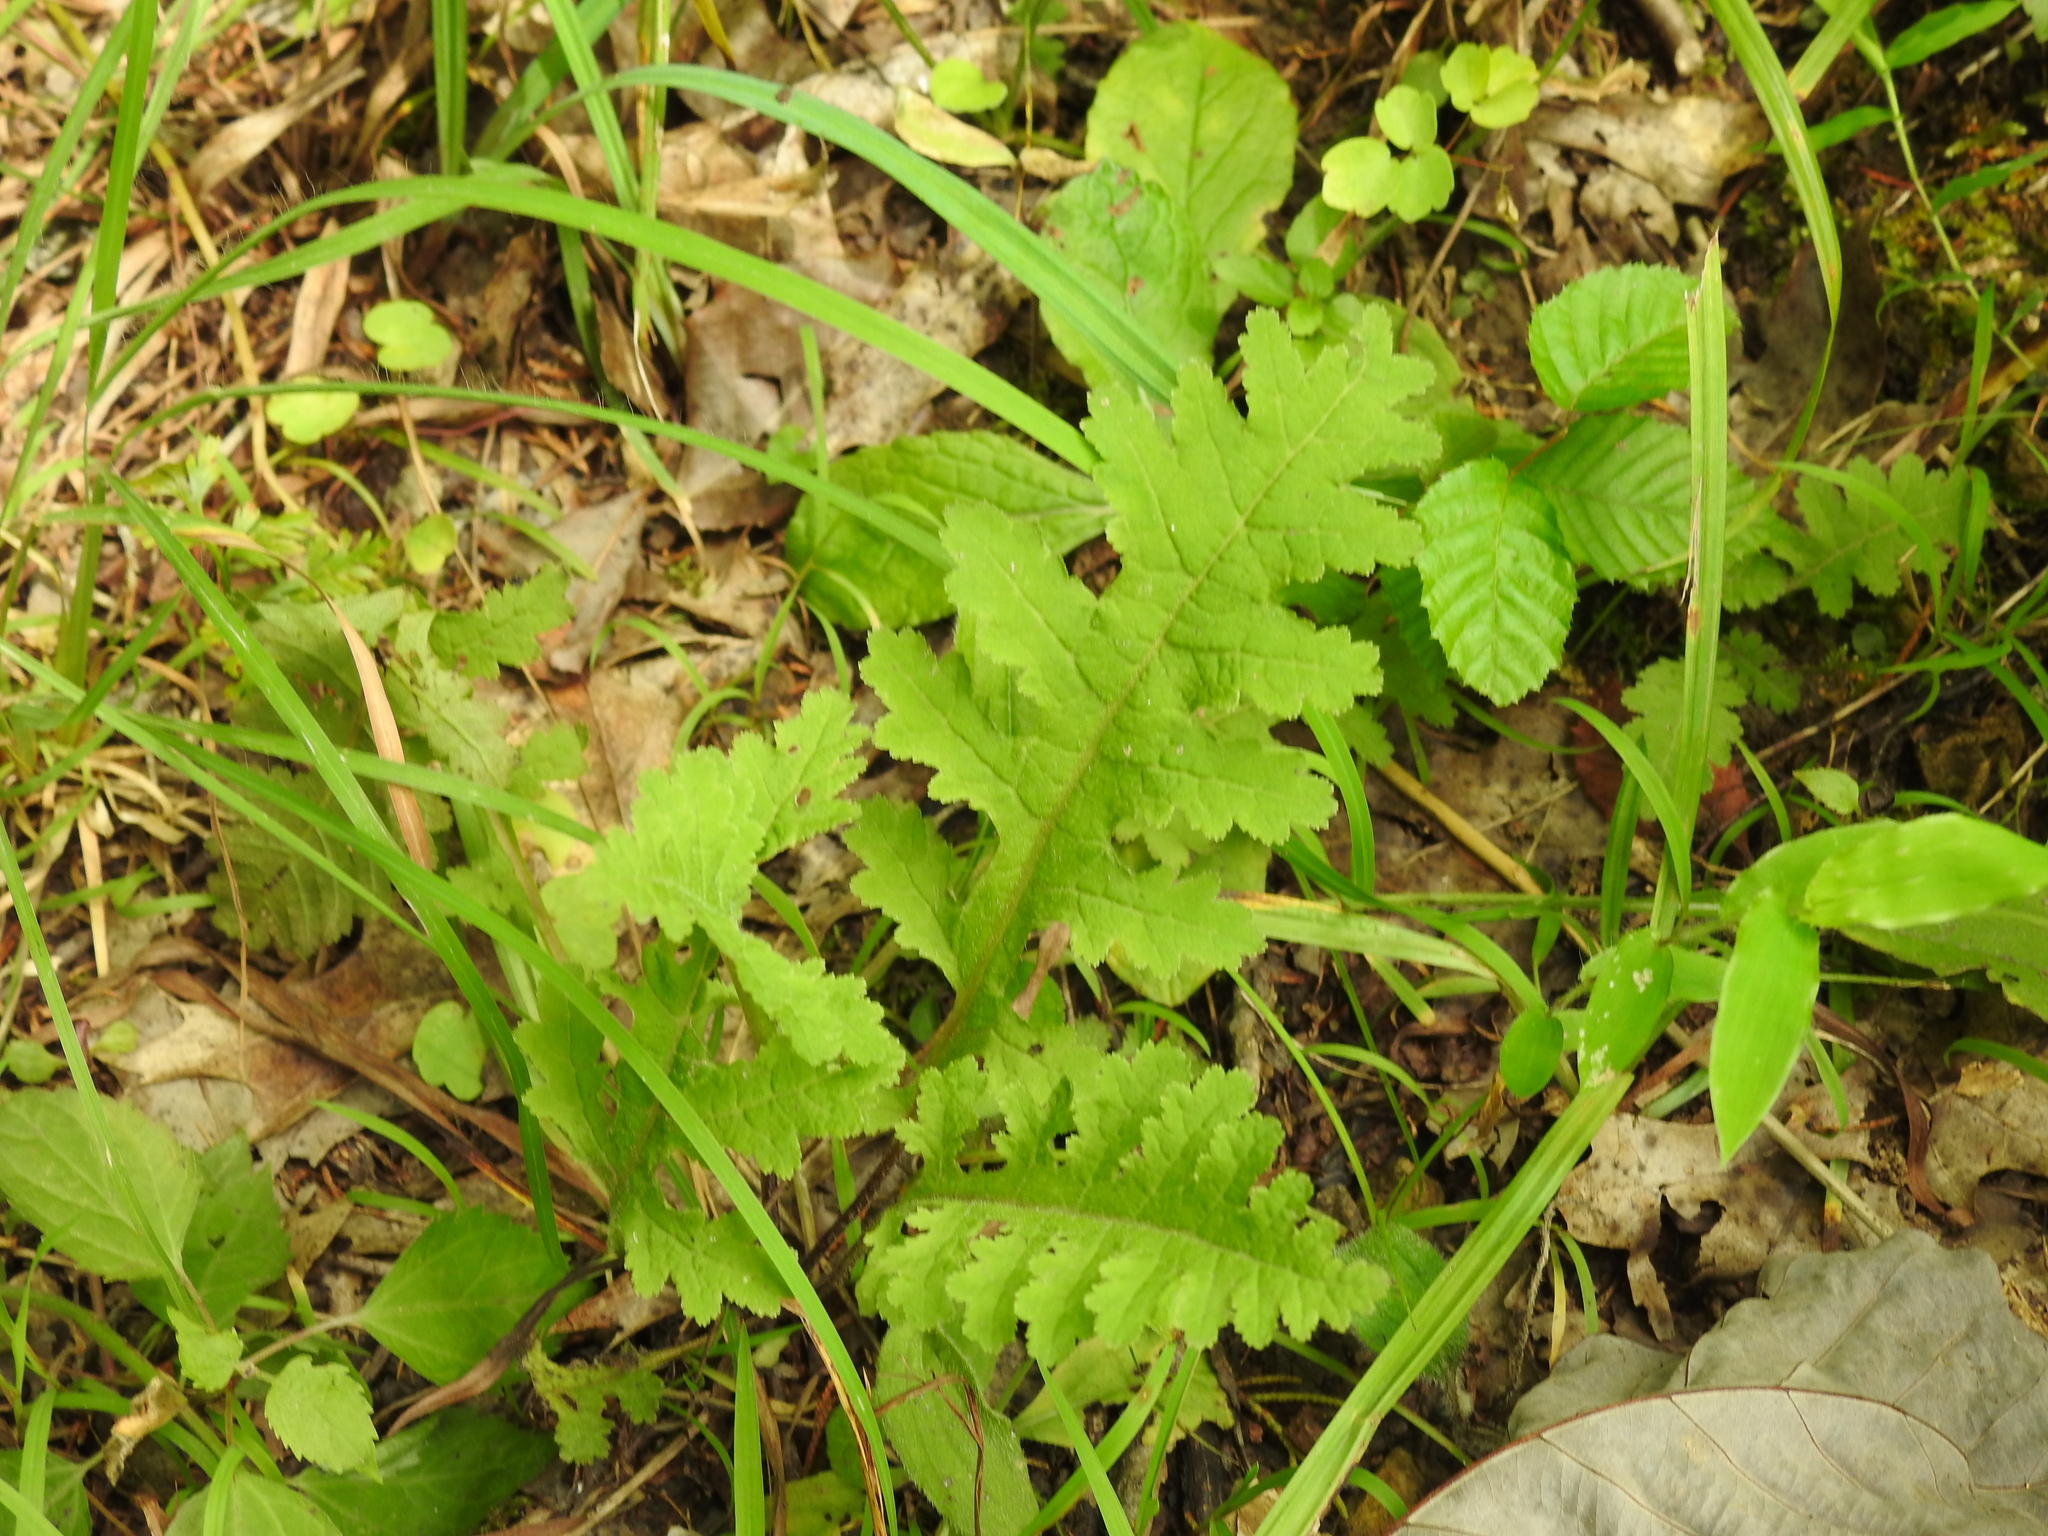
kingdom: Plantae
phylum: Tracheophyta
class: Magnoliopsida
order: Lamiales
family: Orobanchaceae
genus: Pedicularis
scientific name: Pedicularis canadensis
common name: Early lousewort
